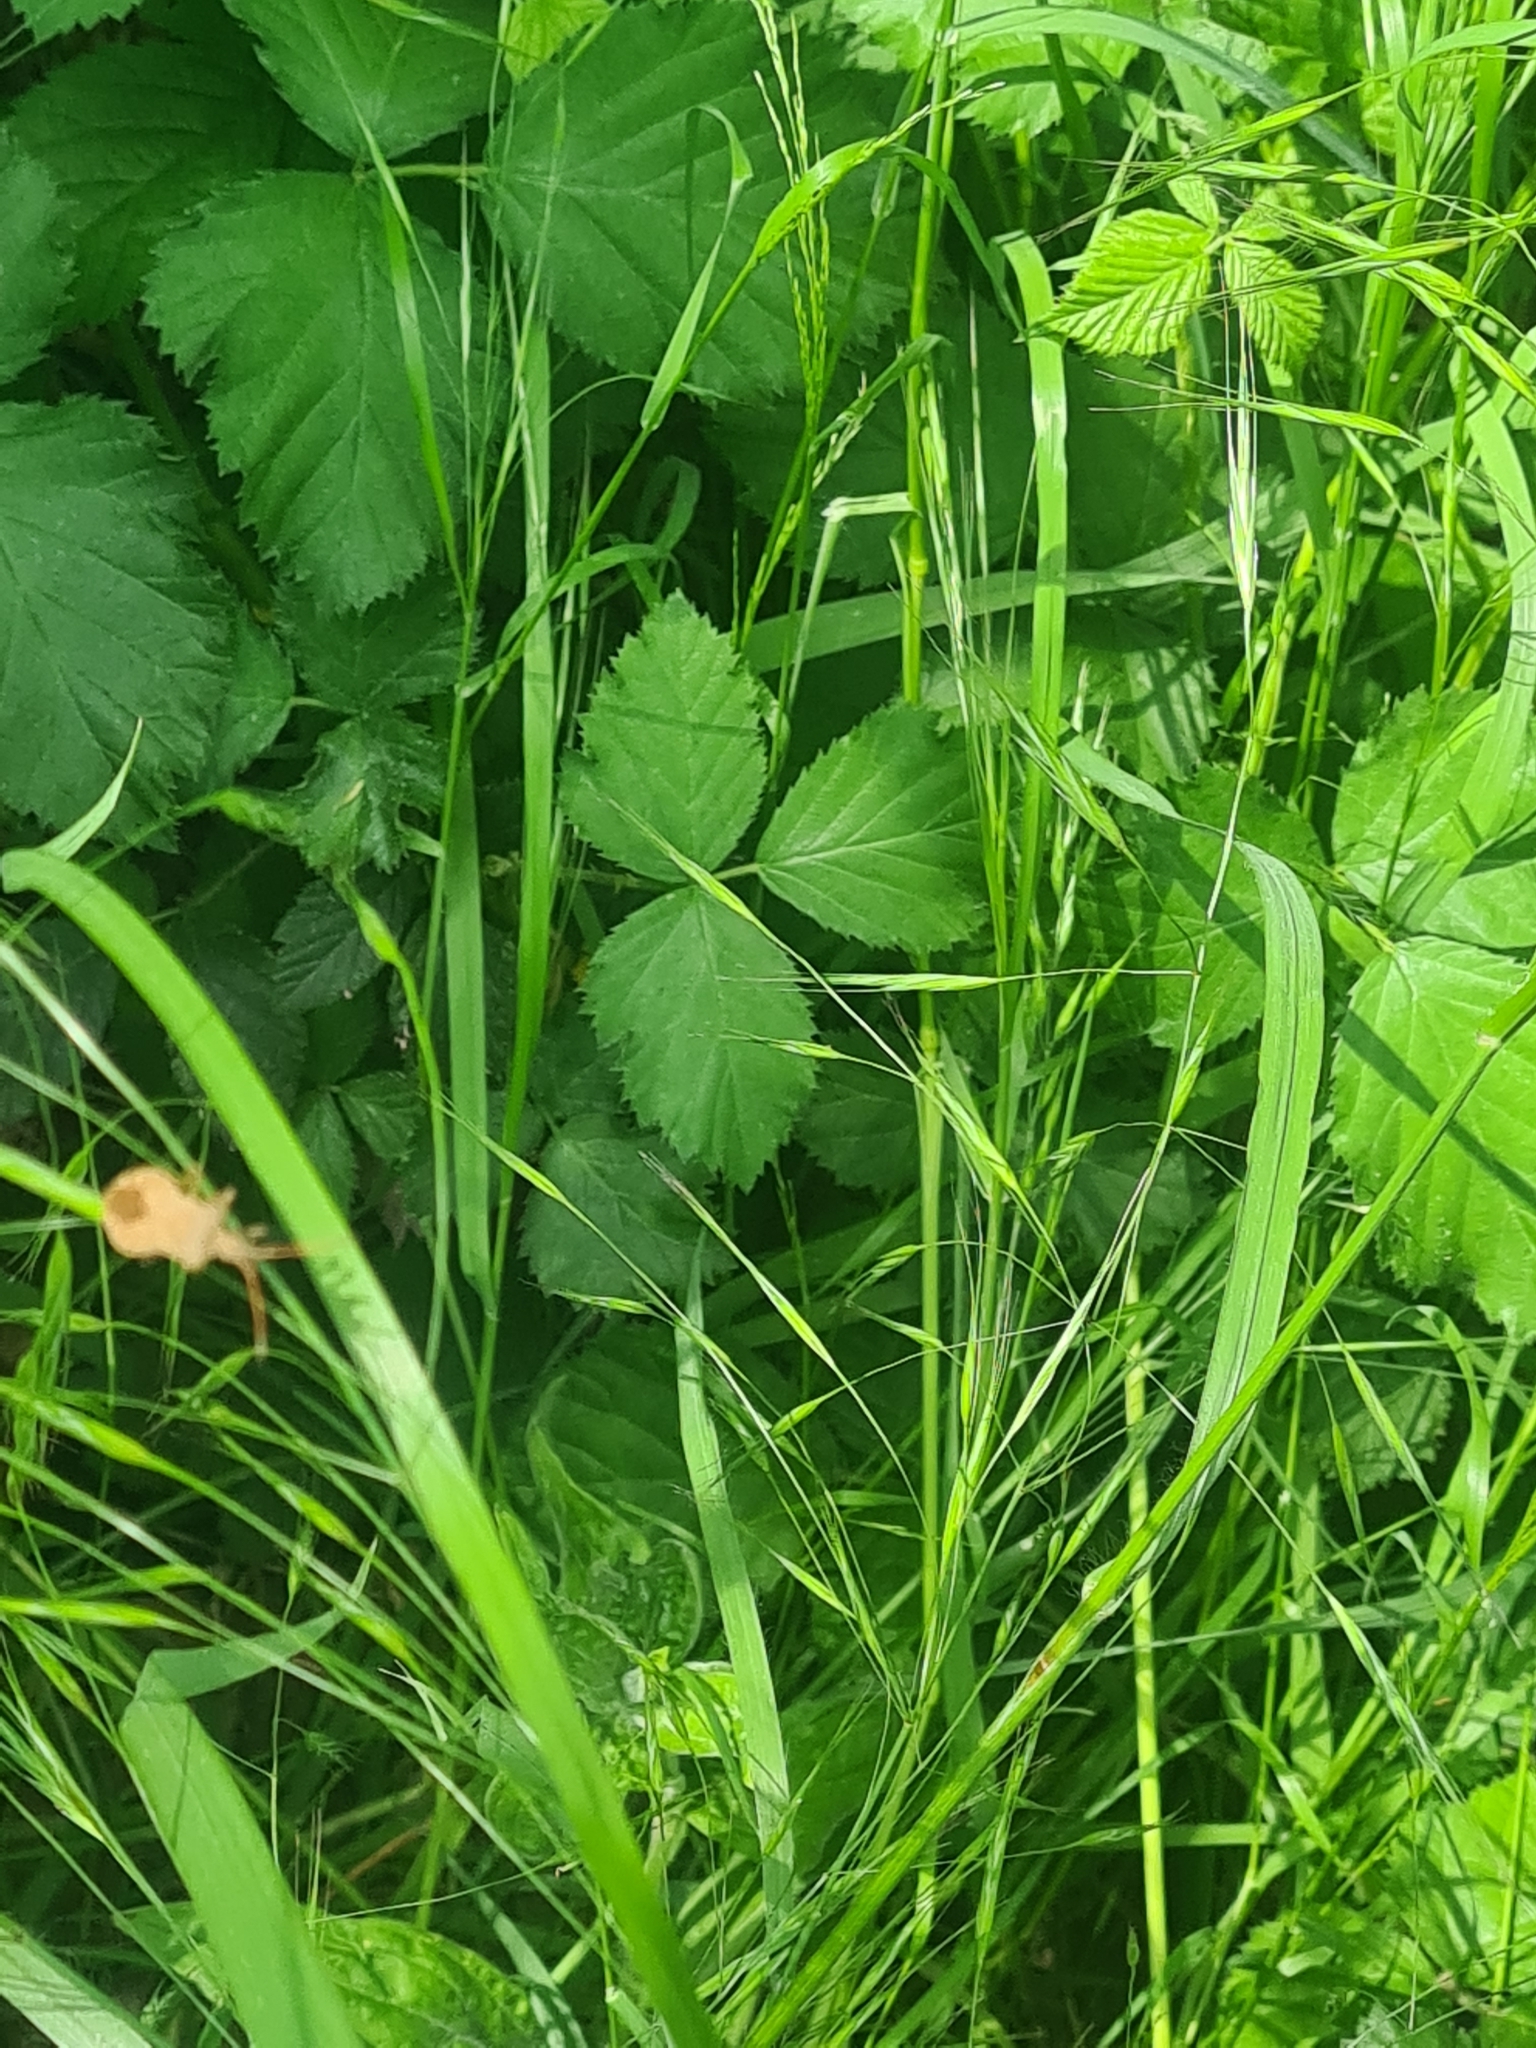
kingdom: Animalia
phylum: Arthropoda
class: Insecta
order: Hemiptera
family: Coreidae
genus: Coreus
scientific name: Coreus marginatus
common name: Dock bug
